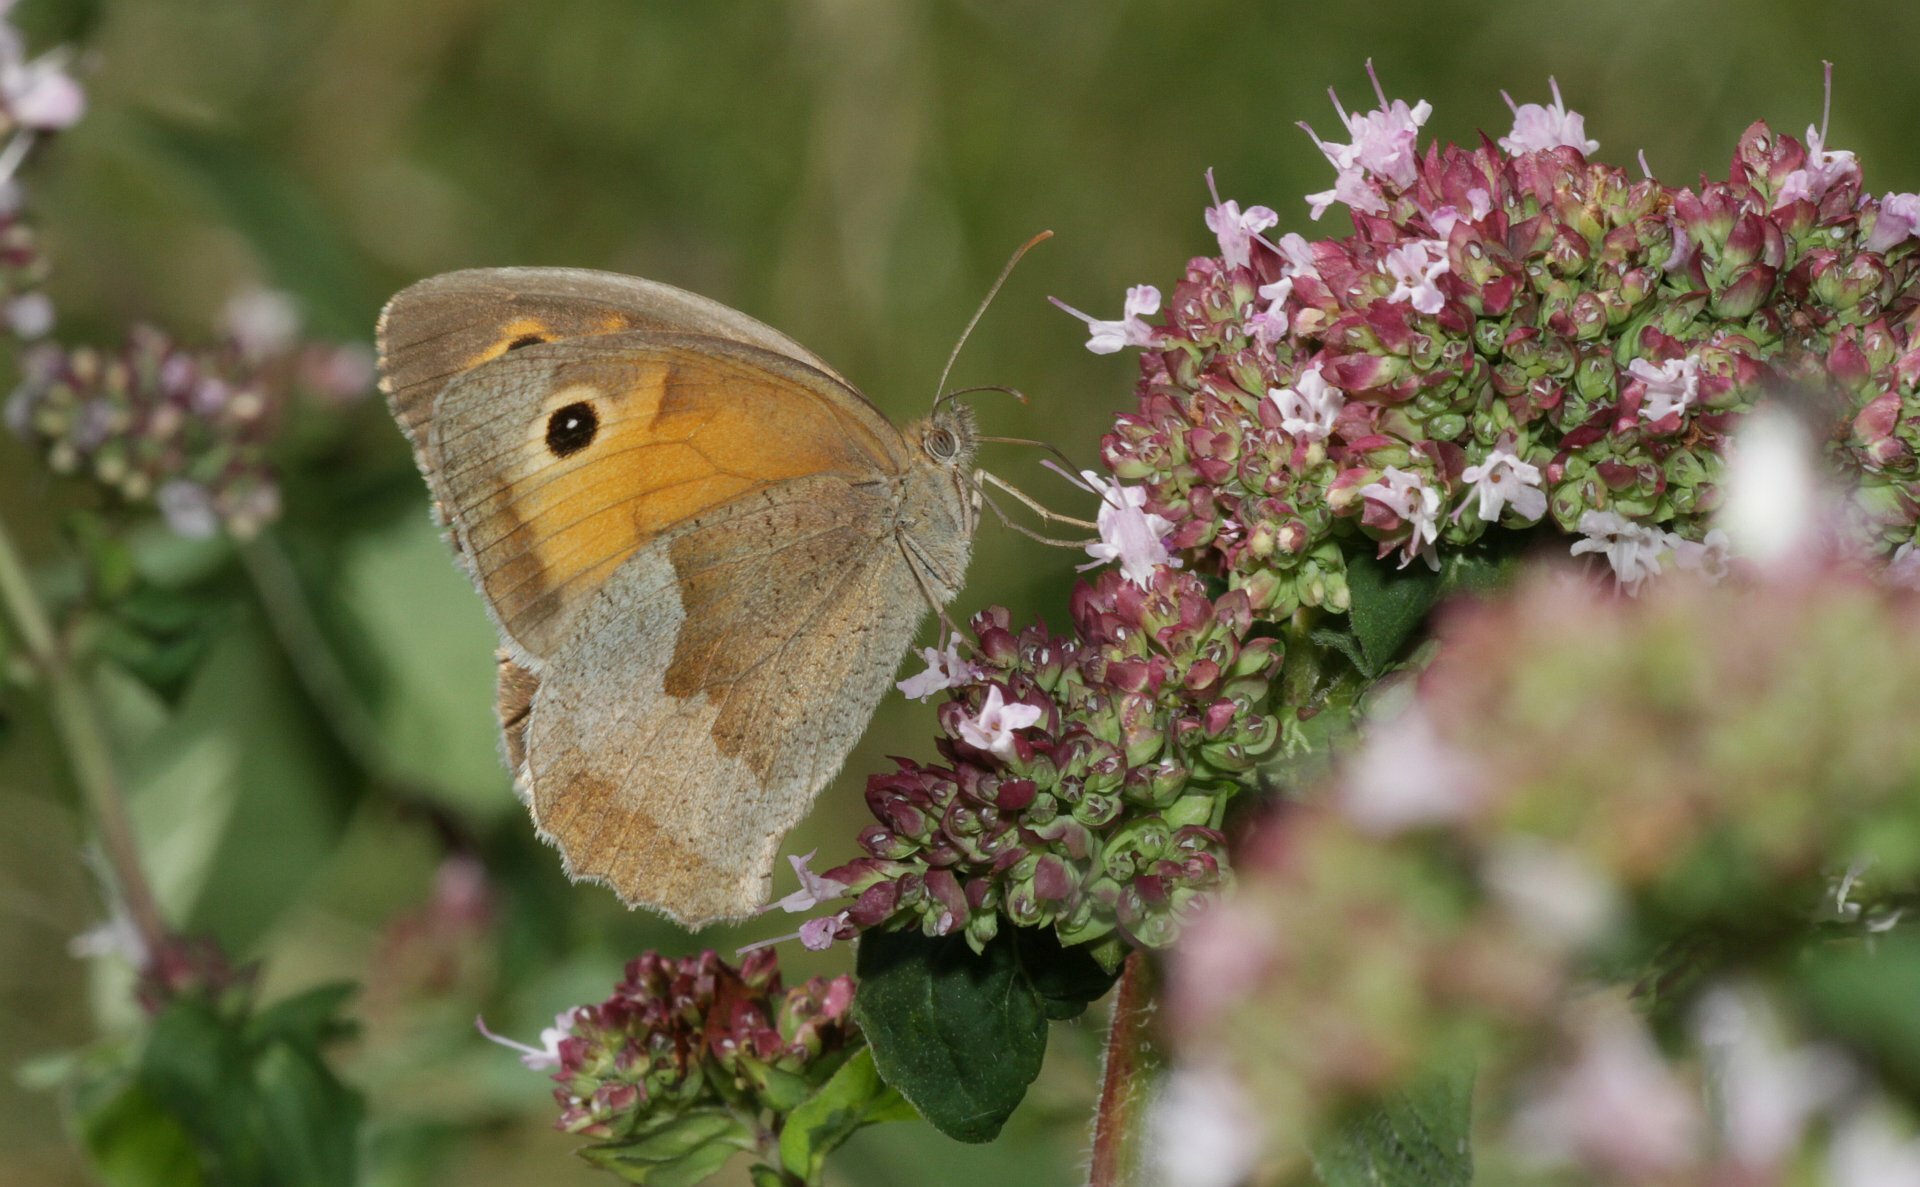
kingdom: Animalia
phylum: Arthropoda
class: Insecta
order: Lepidoptera
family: Nymphalidae
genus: Maniola
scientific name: Maniola jurtina
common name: Meadow brown
